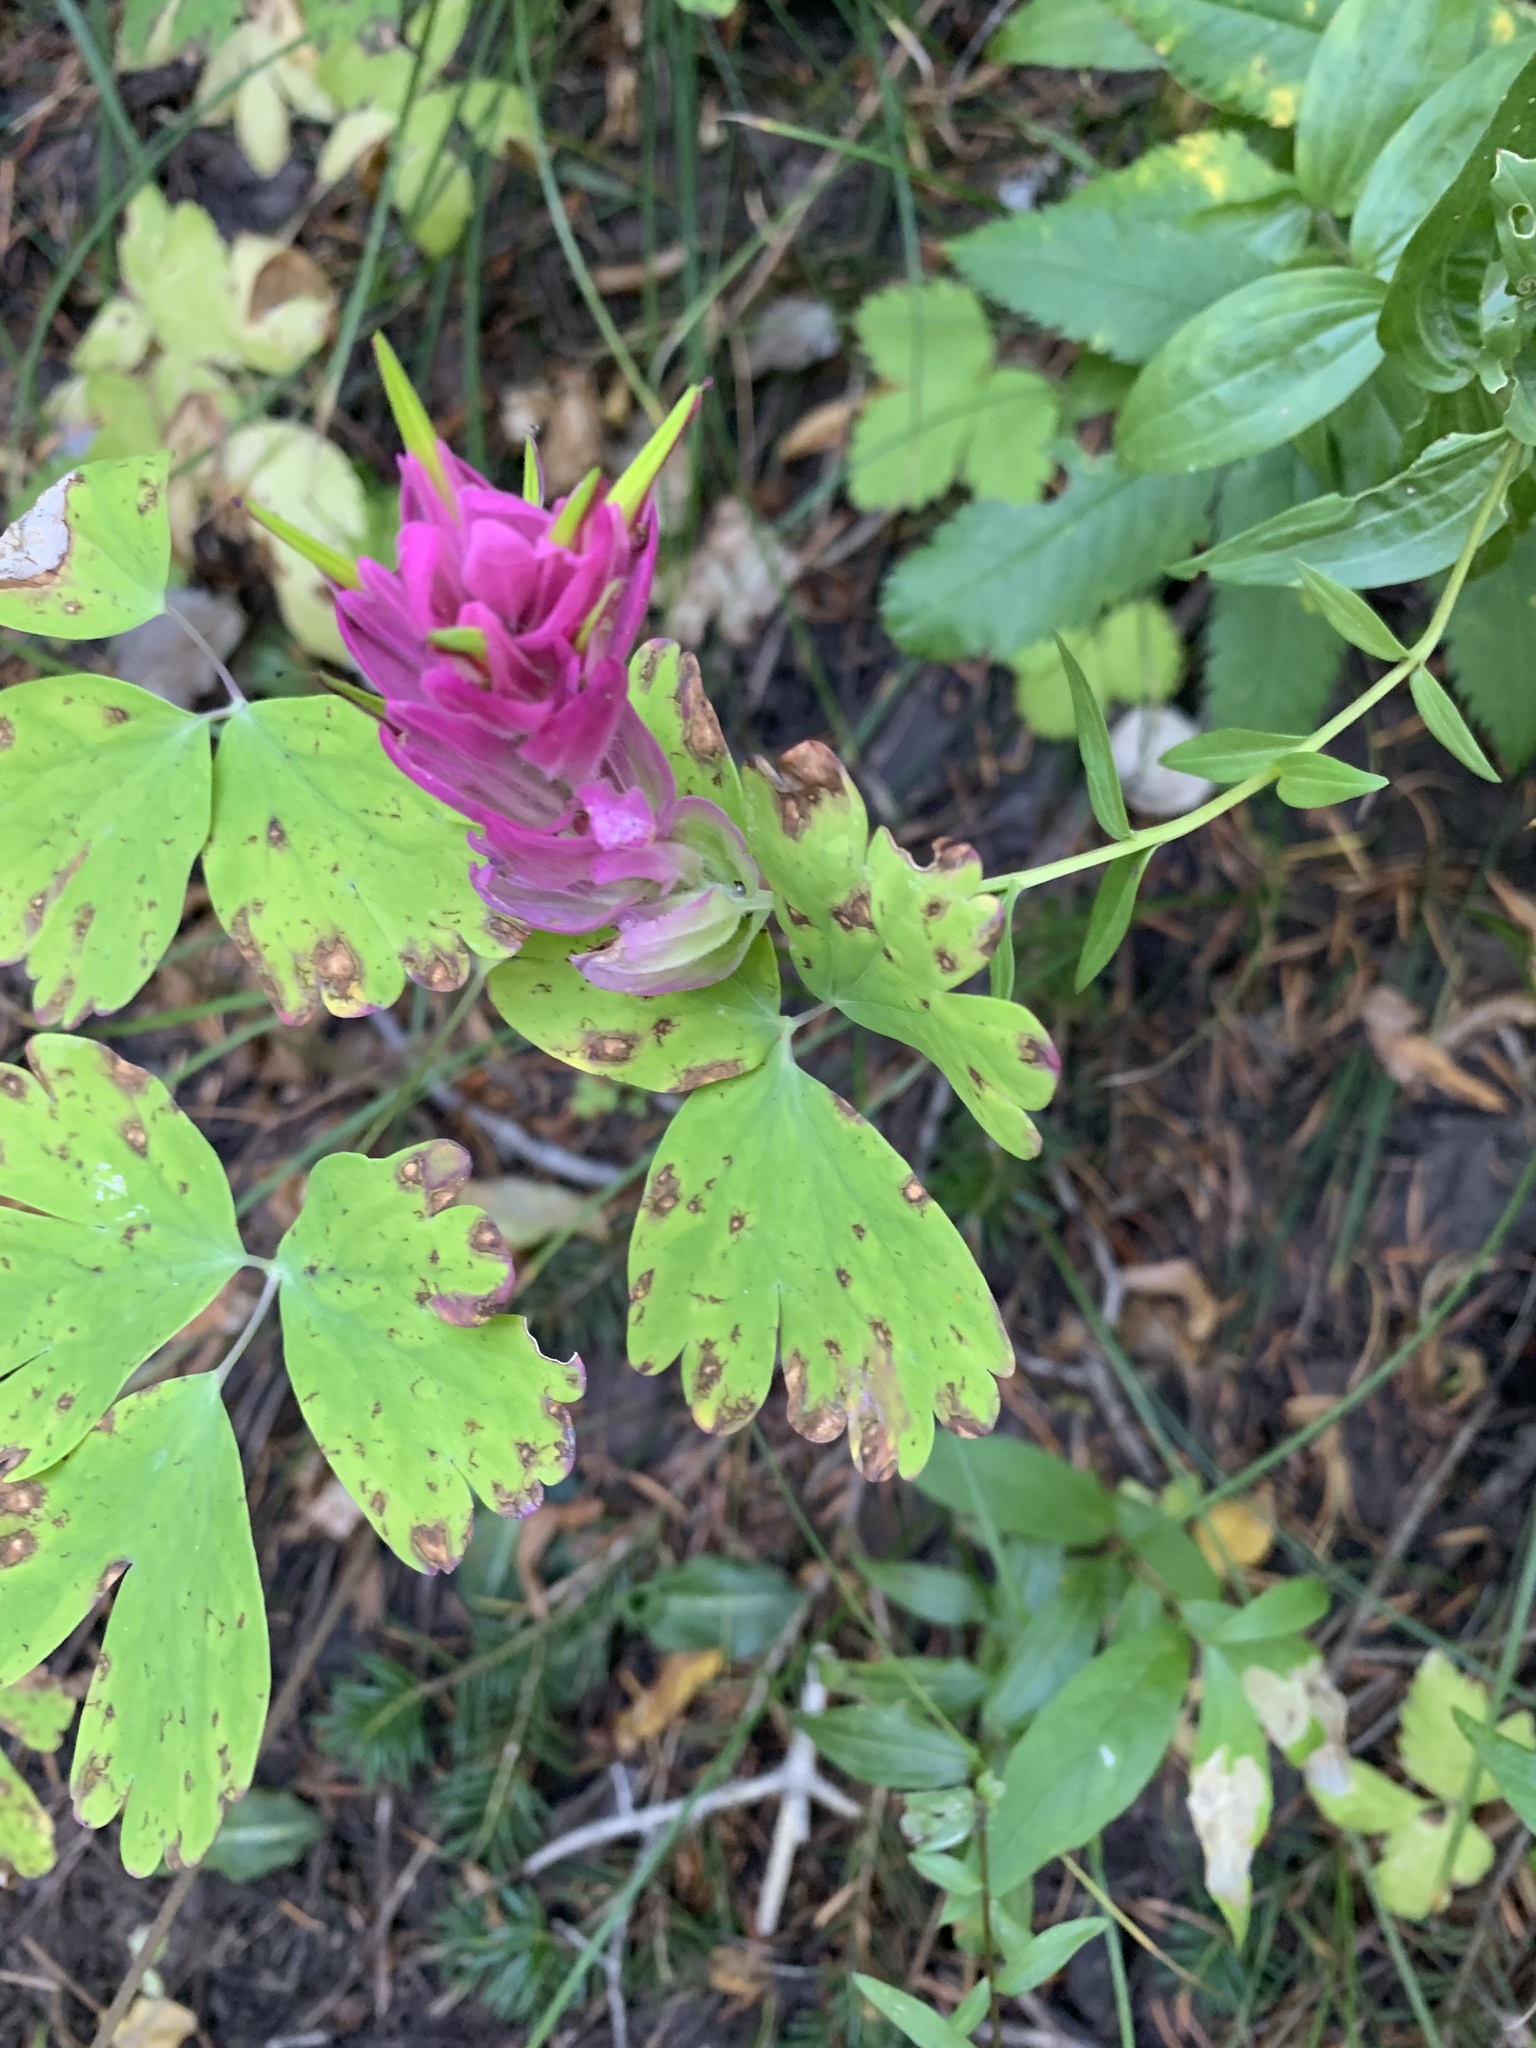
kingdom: Plantae
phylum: Tracheophyta
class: Magnoliopsida
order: Lamiales
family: Orobanchaceae
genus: Castilleja
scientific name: Castilleja rhexifolia
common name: Rocky mountain paintbrush
